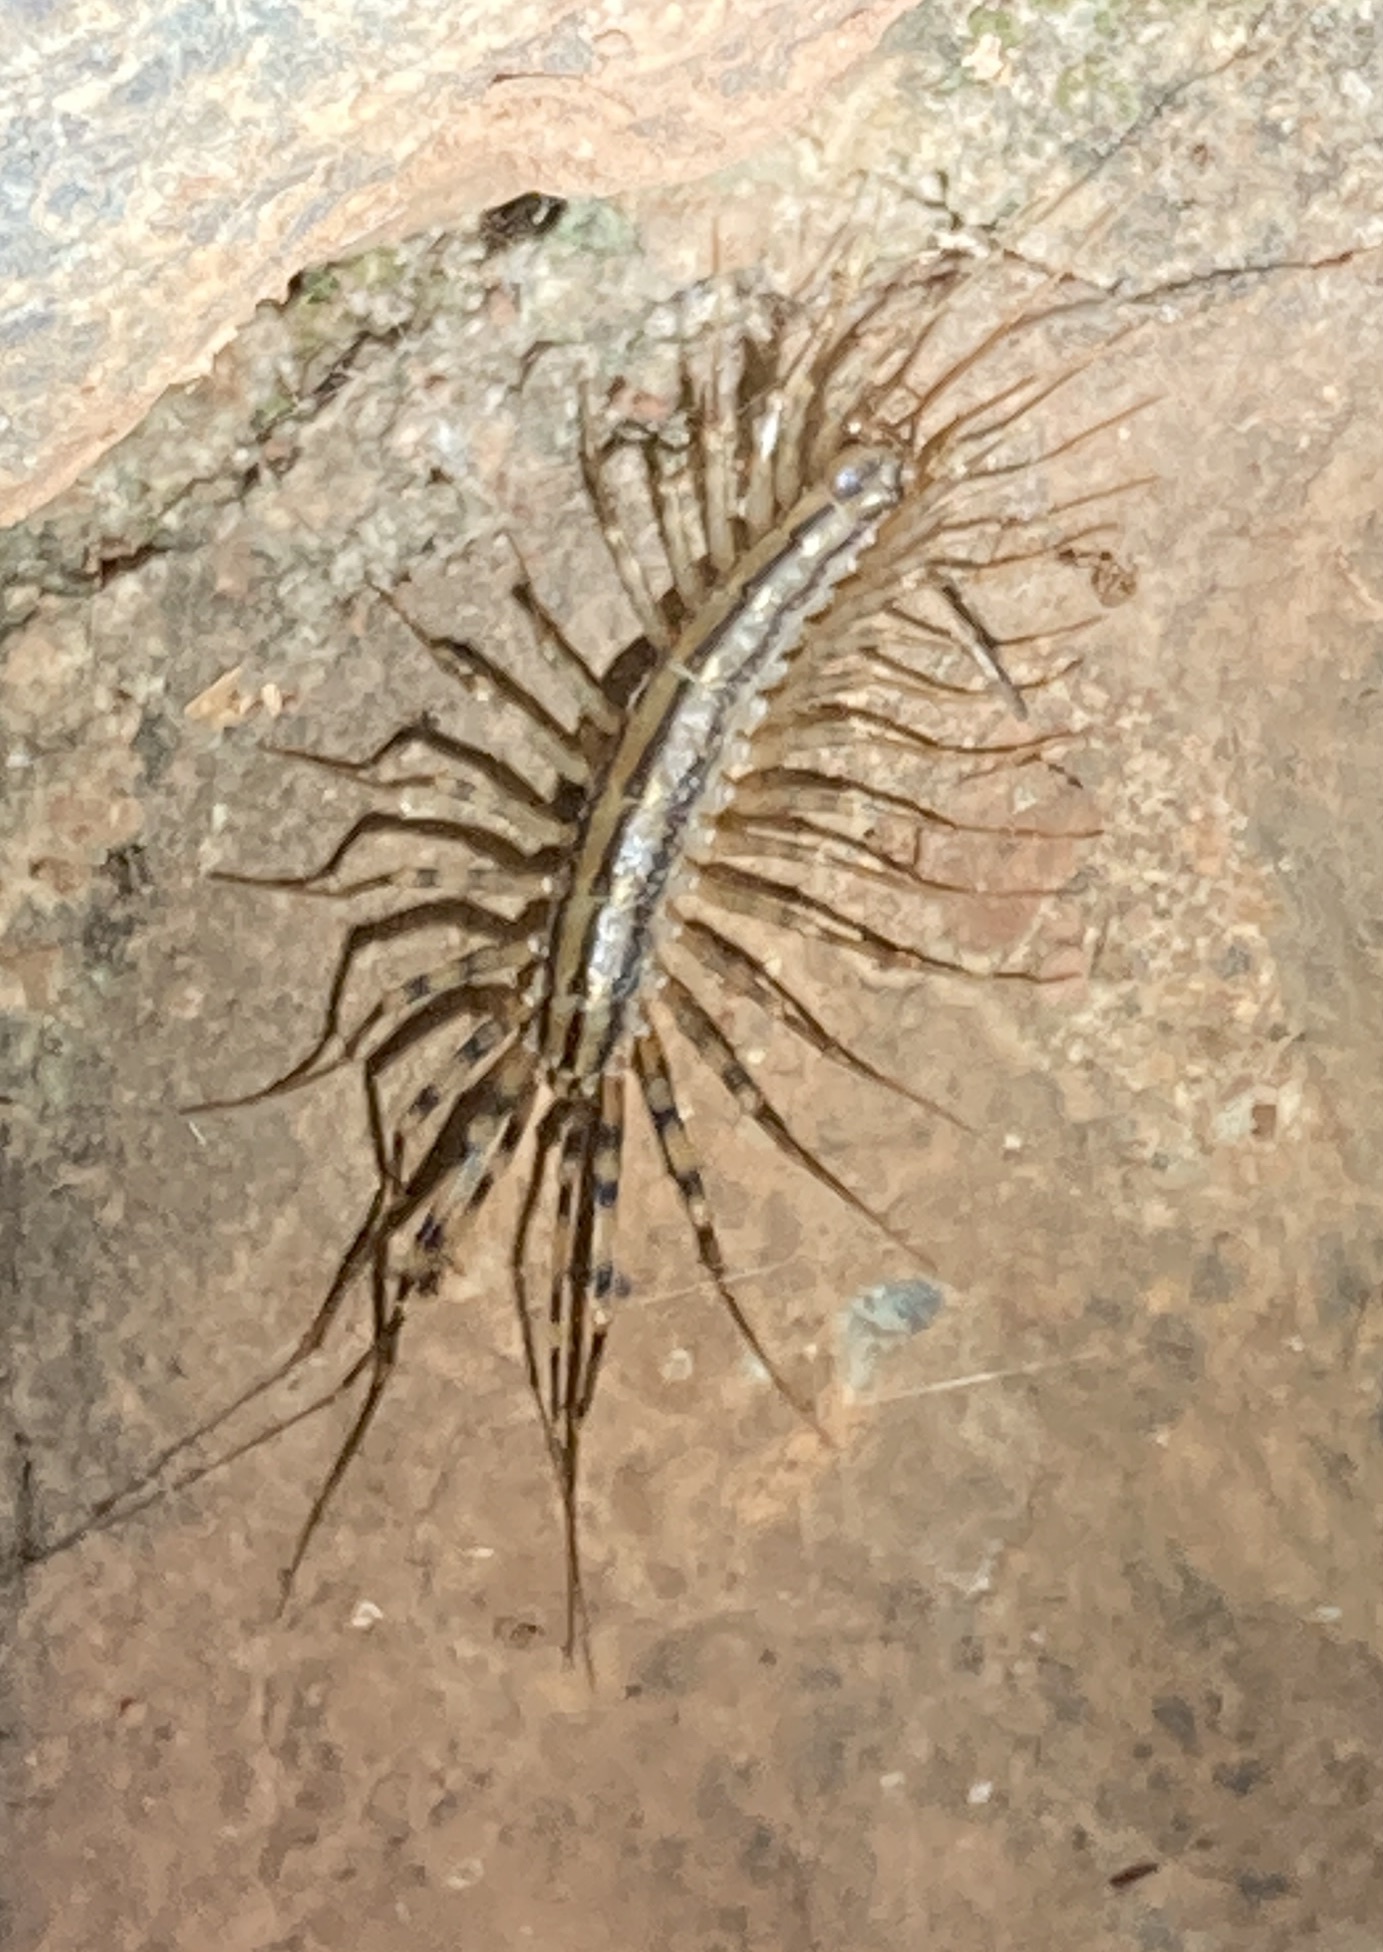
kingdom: Animalia
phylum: Arthropoda
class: Chilopoda
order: Scutigeromorpha
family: Scutigeridae
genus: Scutigera
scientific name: Scutigera coleoptrata
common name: House centipede
